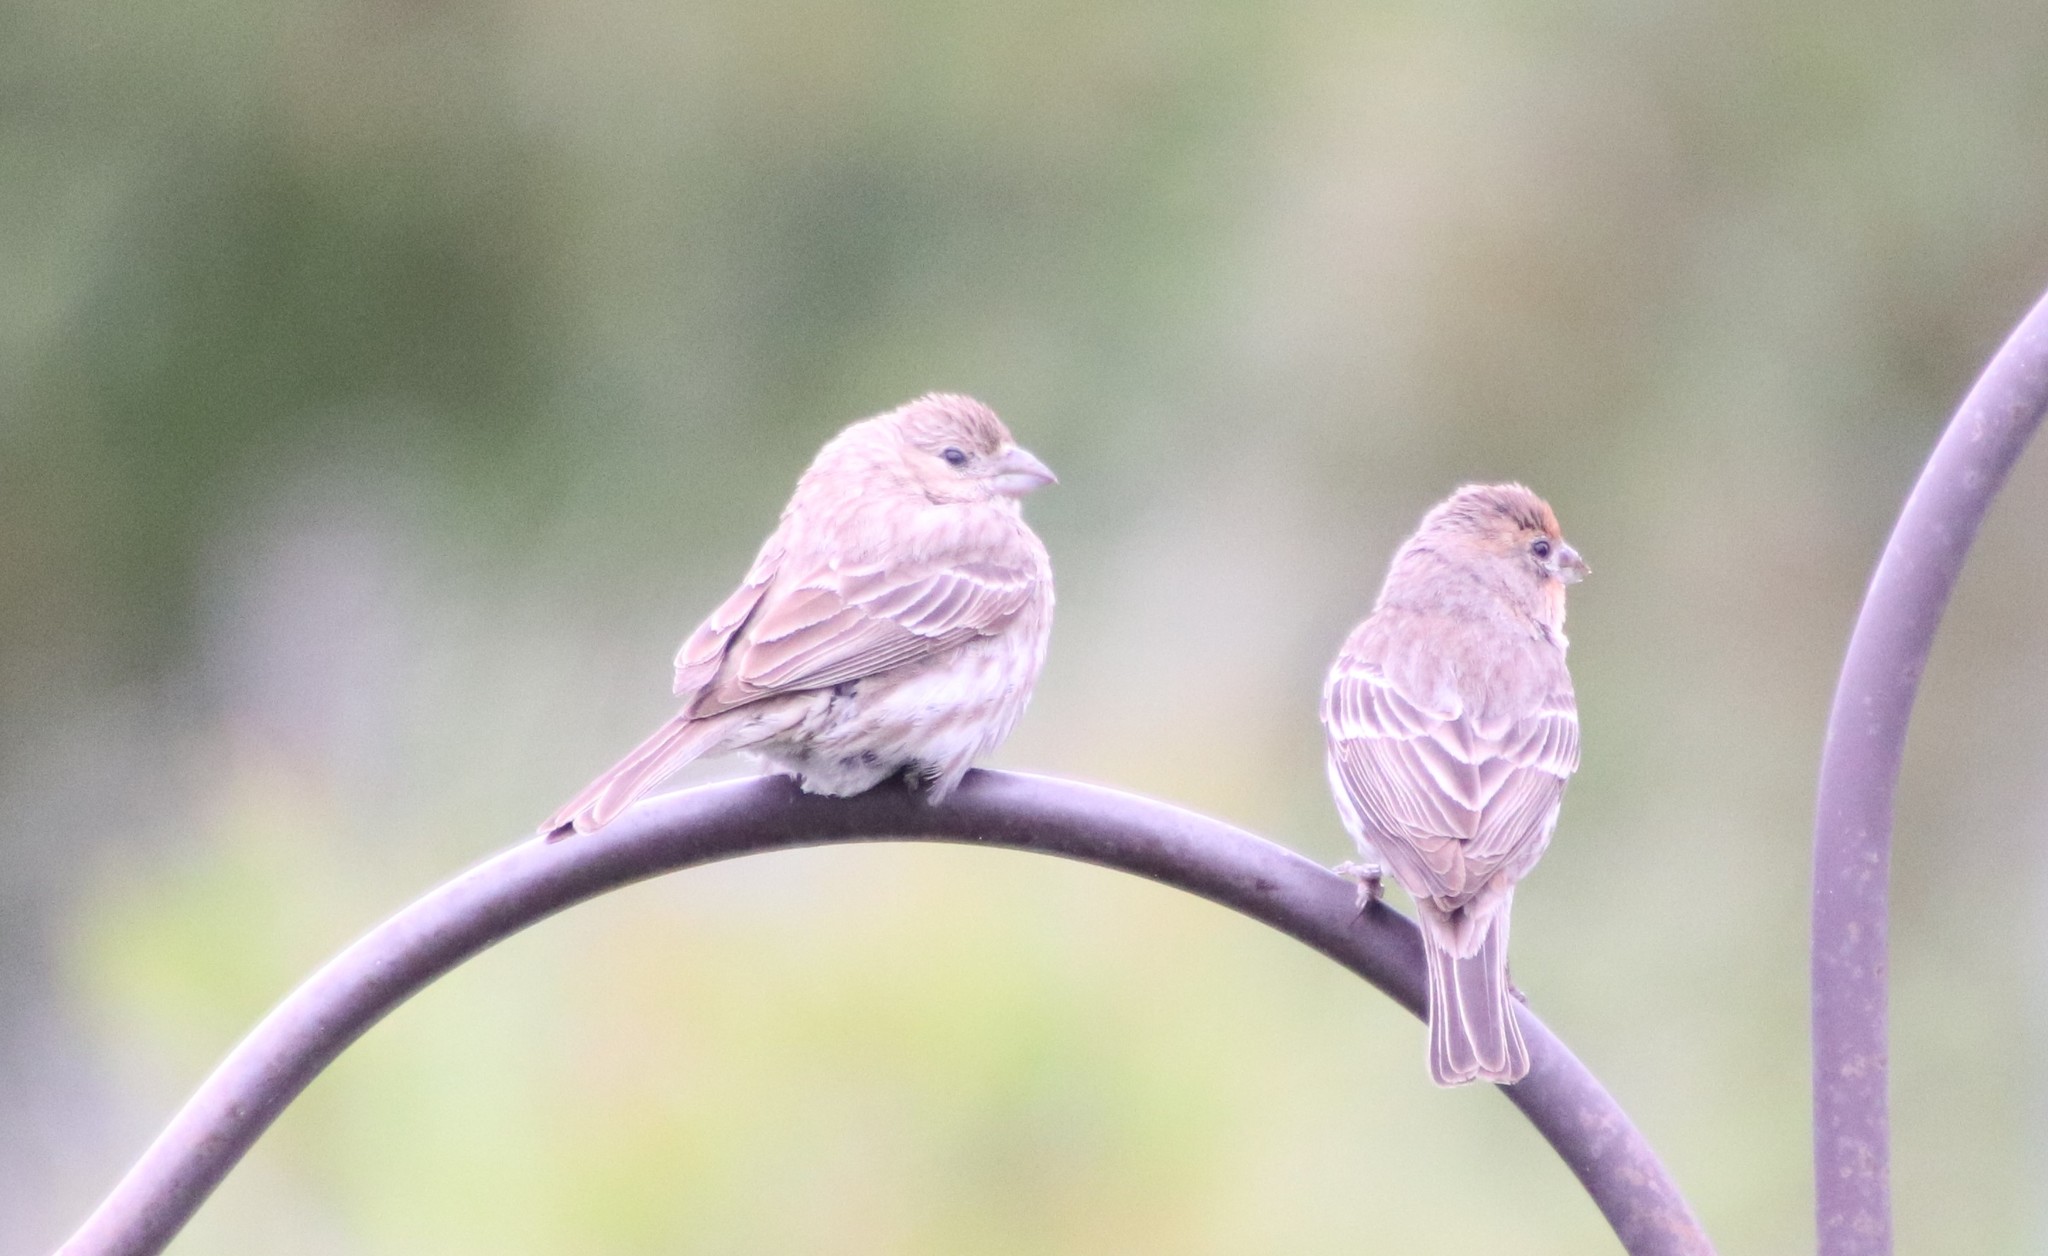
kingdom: Animalia
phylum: Chordata
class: Aves
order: Passeriformes
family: Fringillidae
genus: Haemorhous
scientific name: Haemorhous mexicanus
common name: House finch
